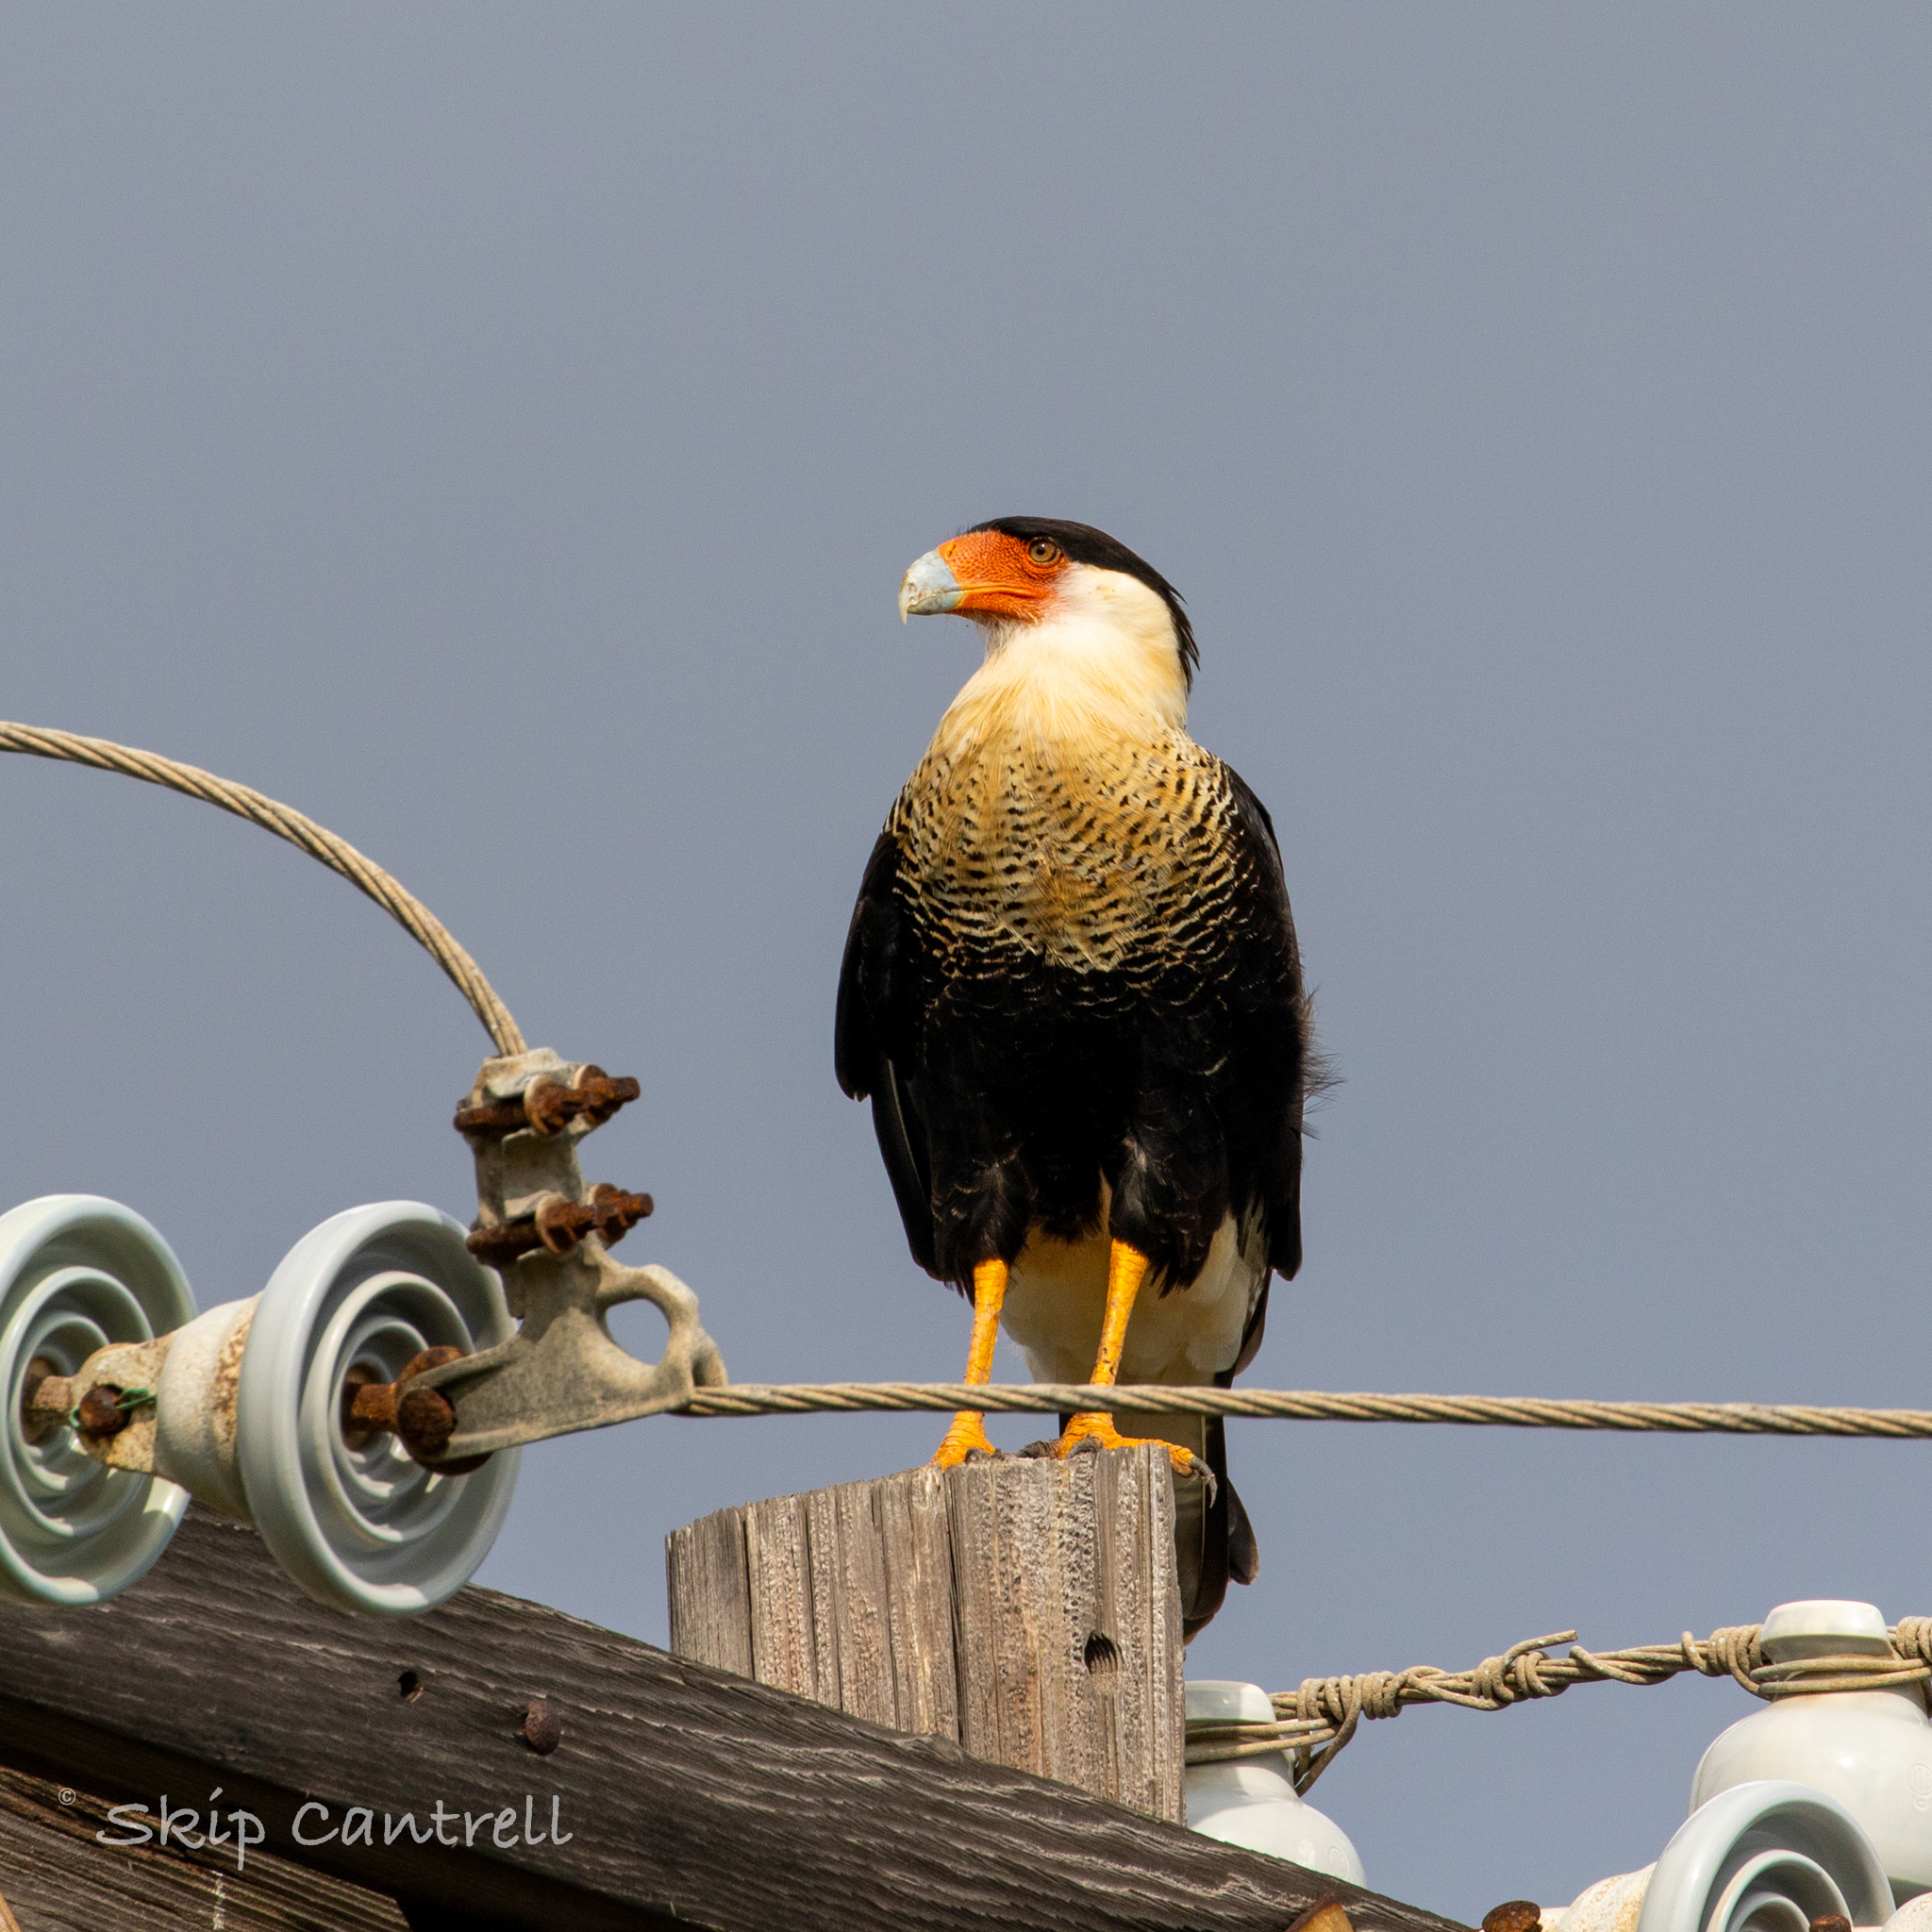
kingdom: Animalia
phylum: Chordata
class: Aves
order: Falconiformes
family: Falconidae
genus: Caracara
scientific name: Caracara plancus
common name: Southern caracara
